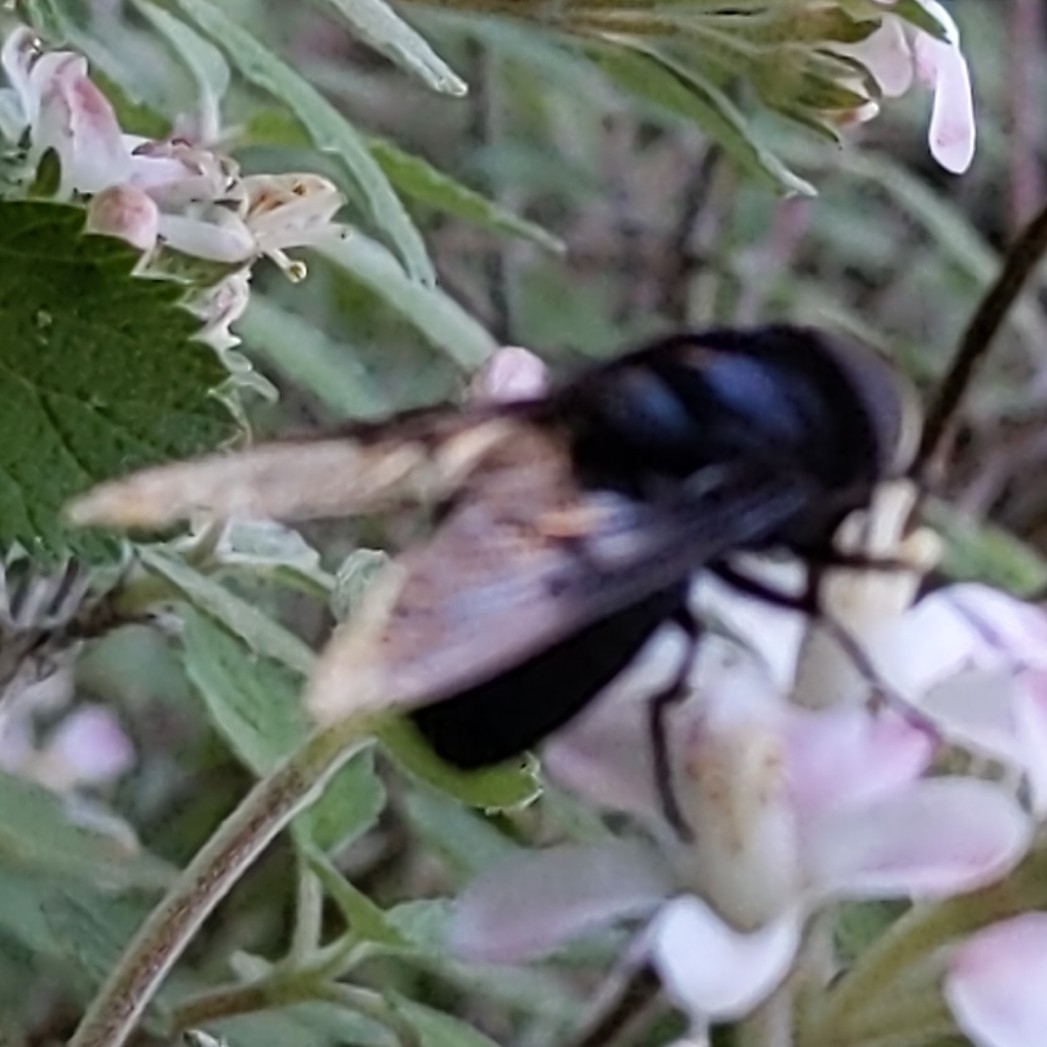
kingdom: Animalia
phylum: Arthropoda
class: Insecta
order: Diptera
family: Syrphidae
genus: Copestylum
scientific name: Copestylum
